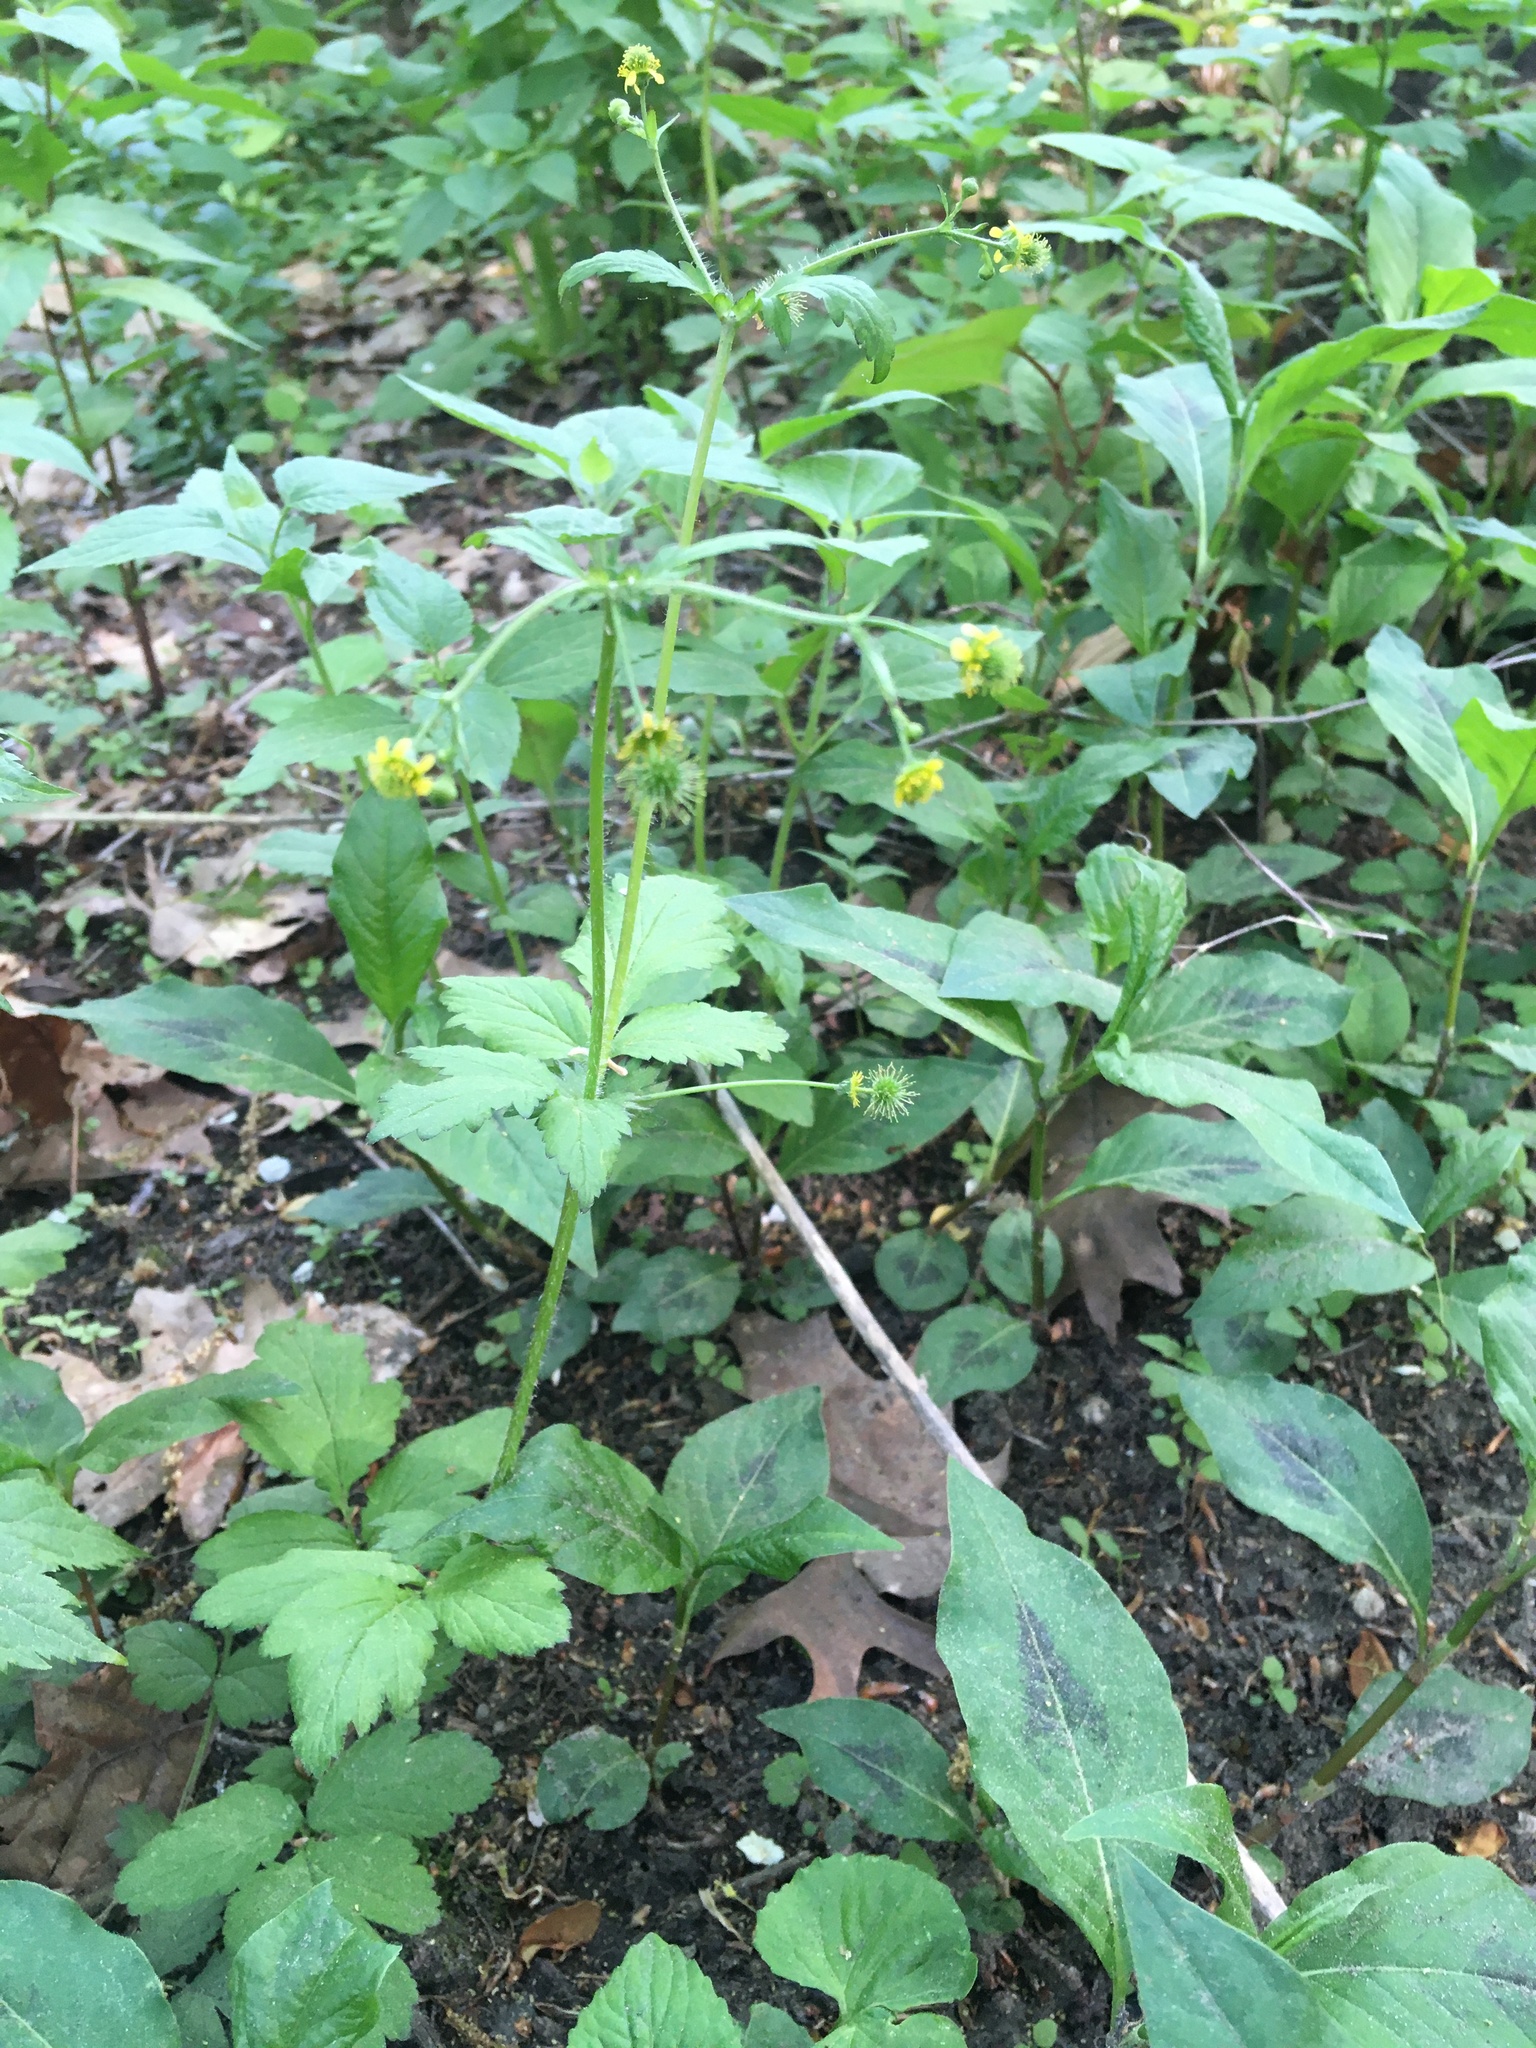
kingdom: Plantae
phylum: Tracheophyta
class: Magnoliopsida
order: Rosales
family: Rosaceae
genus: Geum
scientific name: Geum vernum
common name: Spring avens
